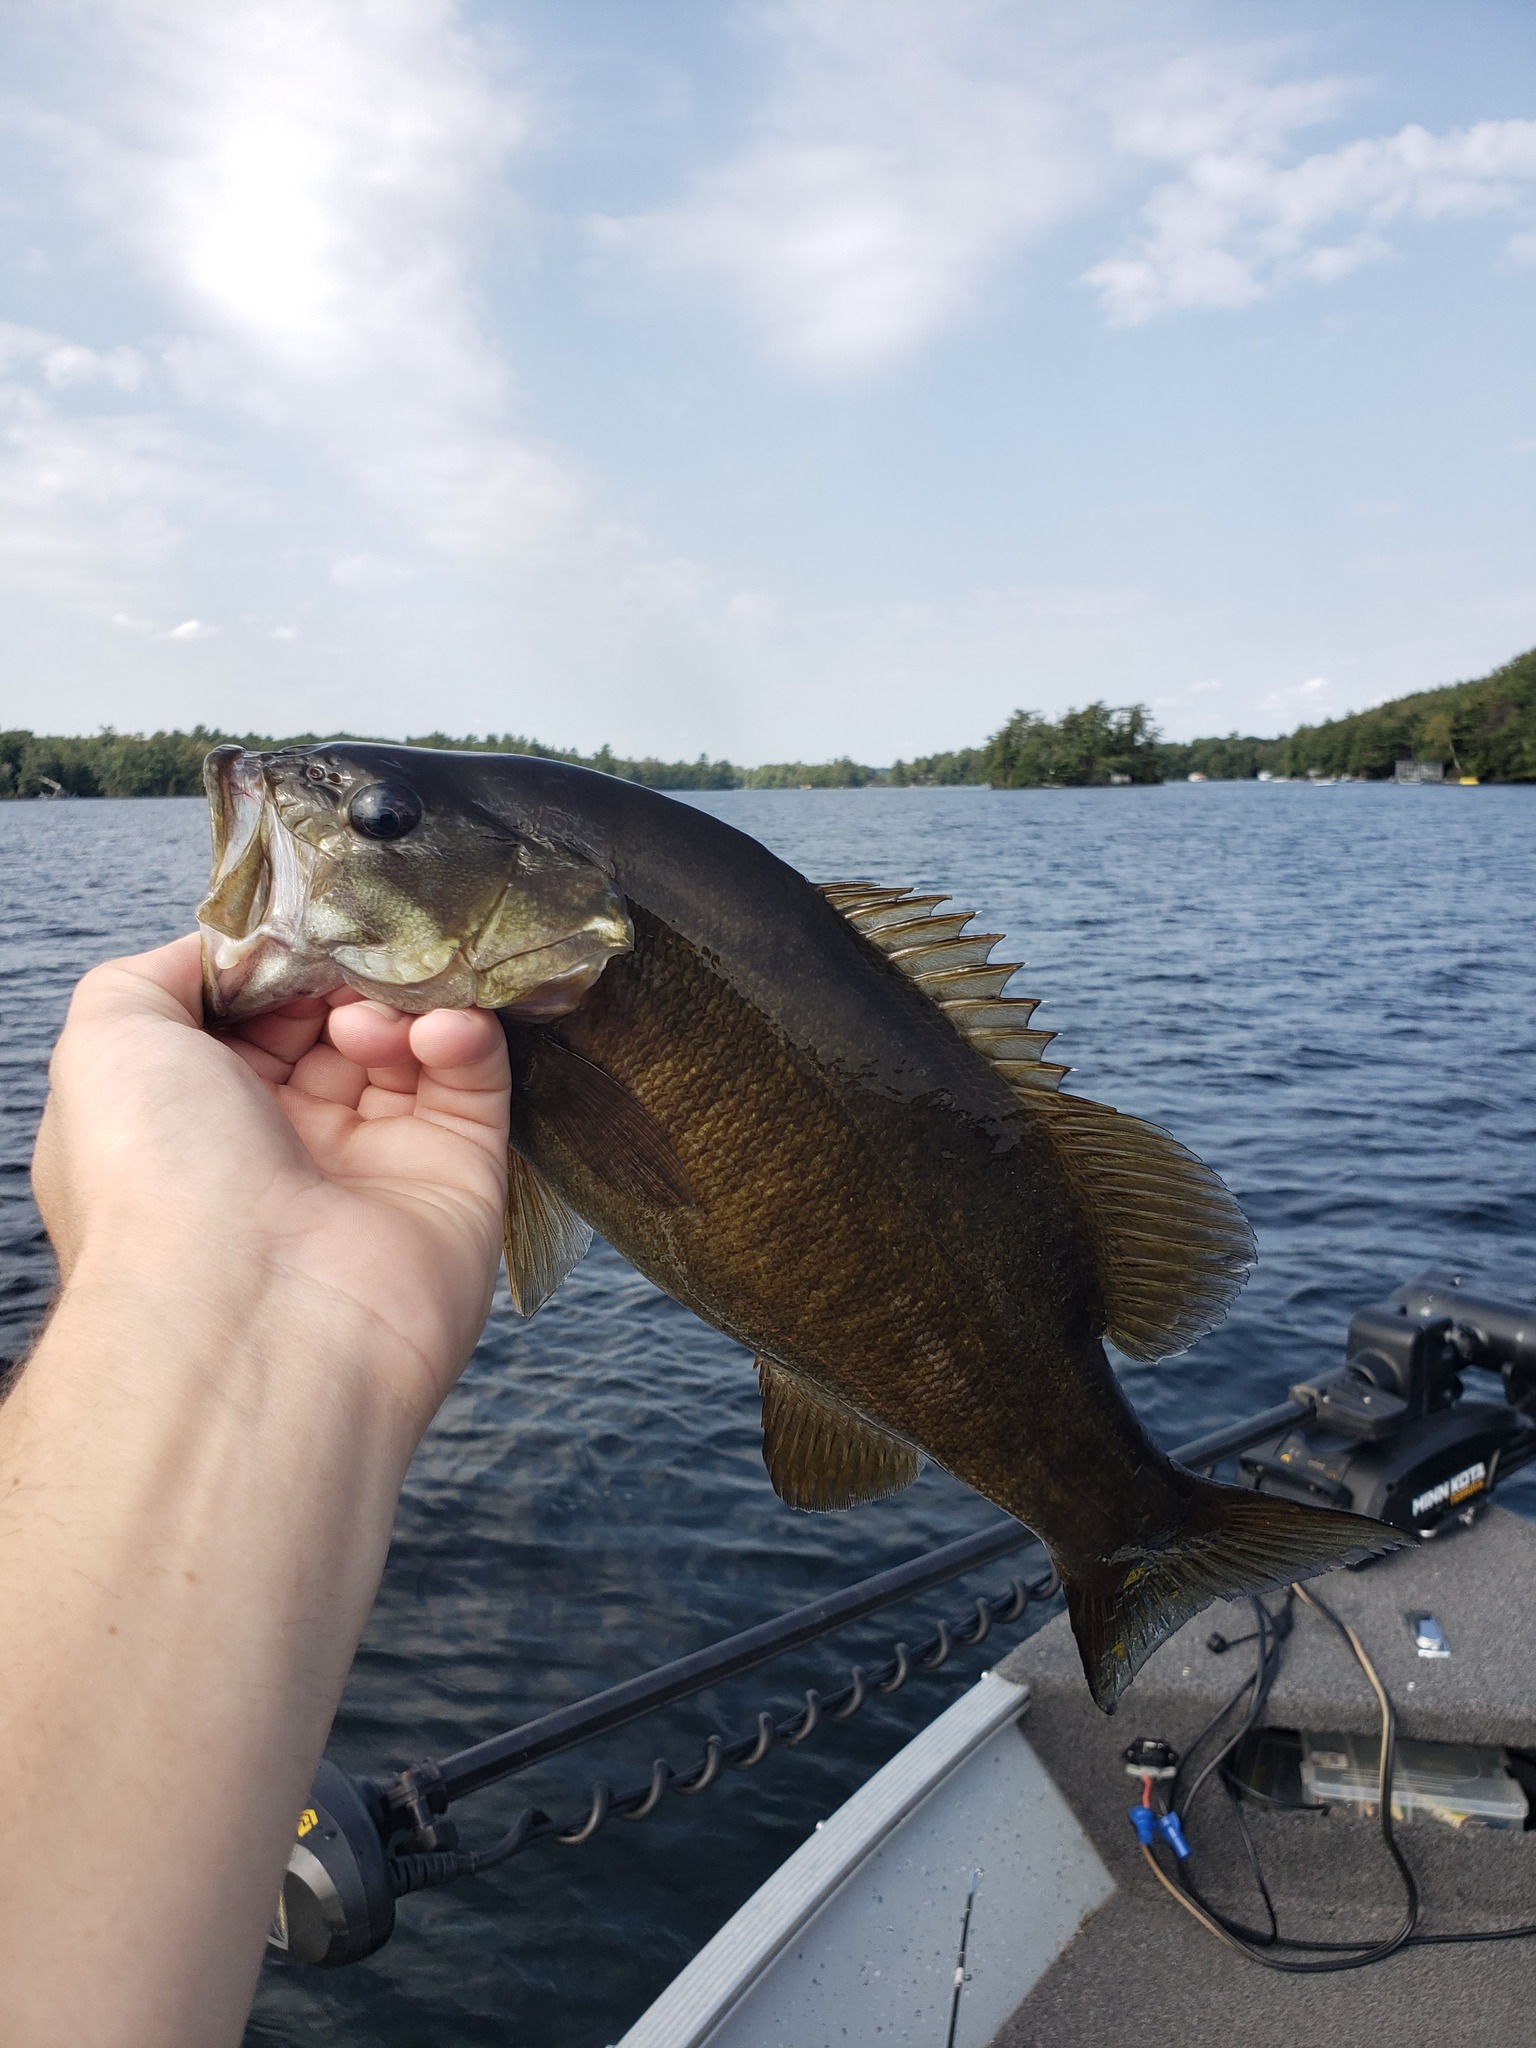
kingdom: Animalia
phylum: Chordata
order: Perciformes
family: Centrarchidae
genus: Micropterus
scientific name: Micropterus dolomieu
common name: Smallmouth bass
